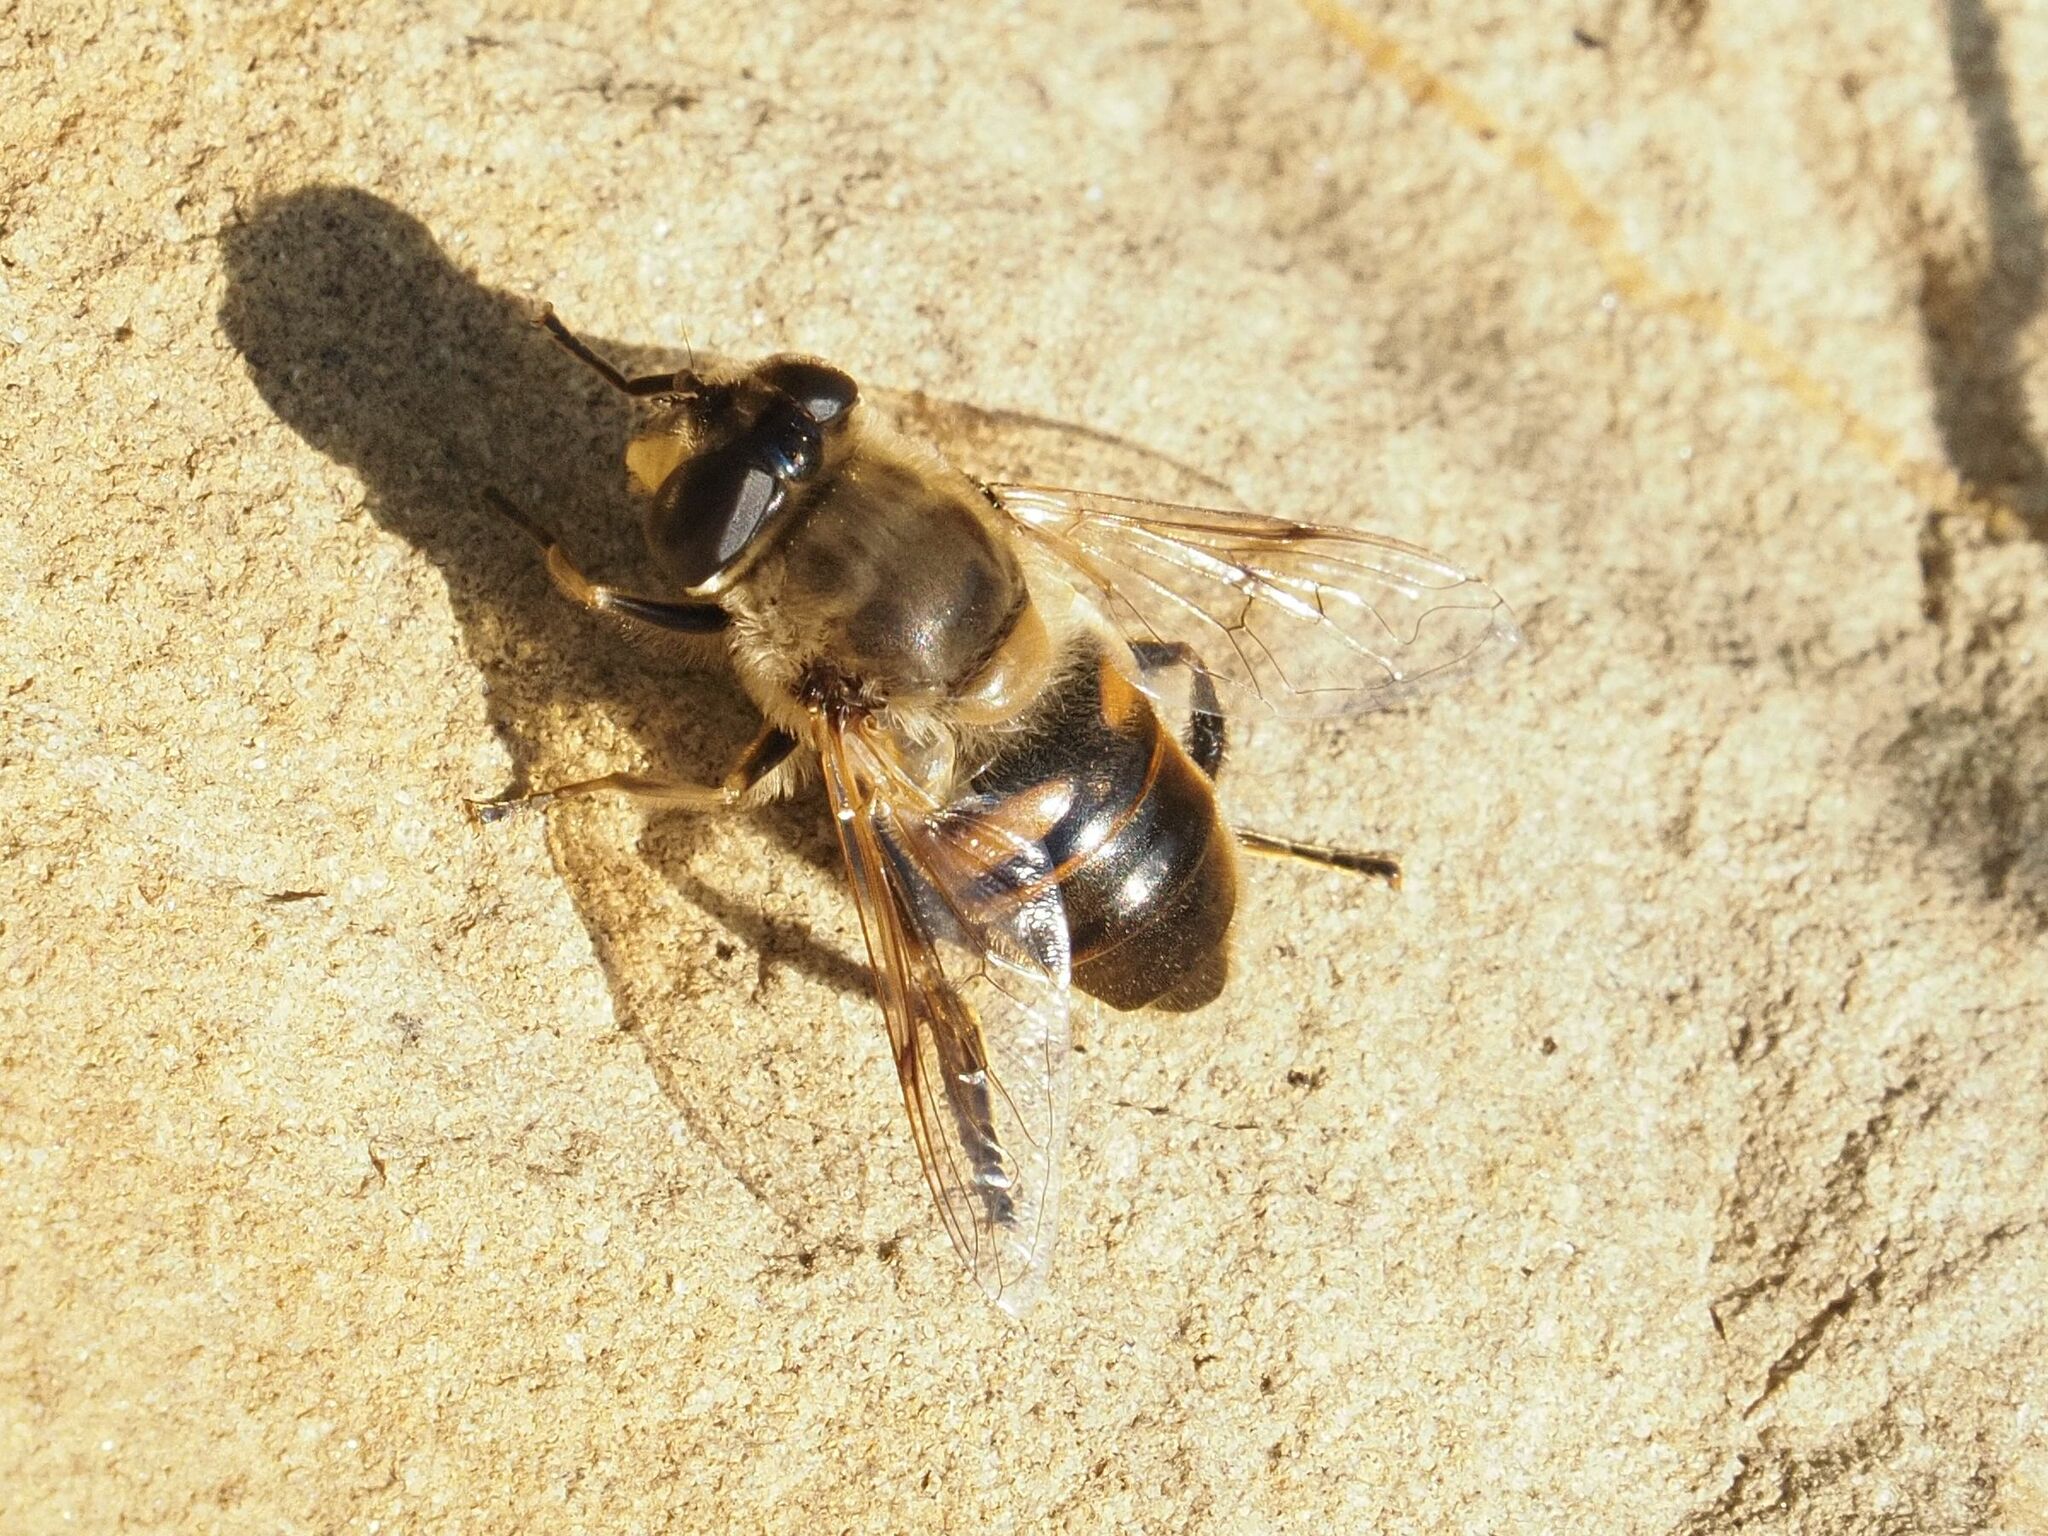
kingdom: Animalia
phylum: Arthropoda
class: Insecta
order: Diptera
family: Syrphidae
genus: Eristalis
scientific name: Eristalis tenax
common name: Drone fly
